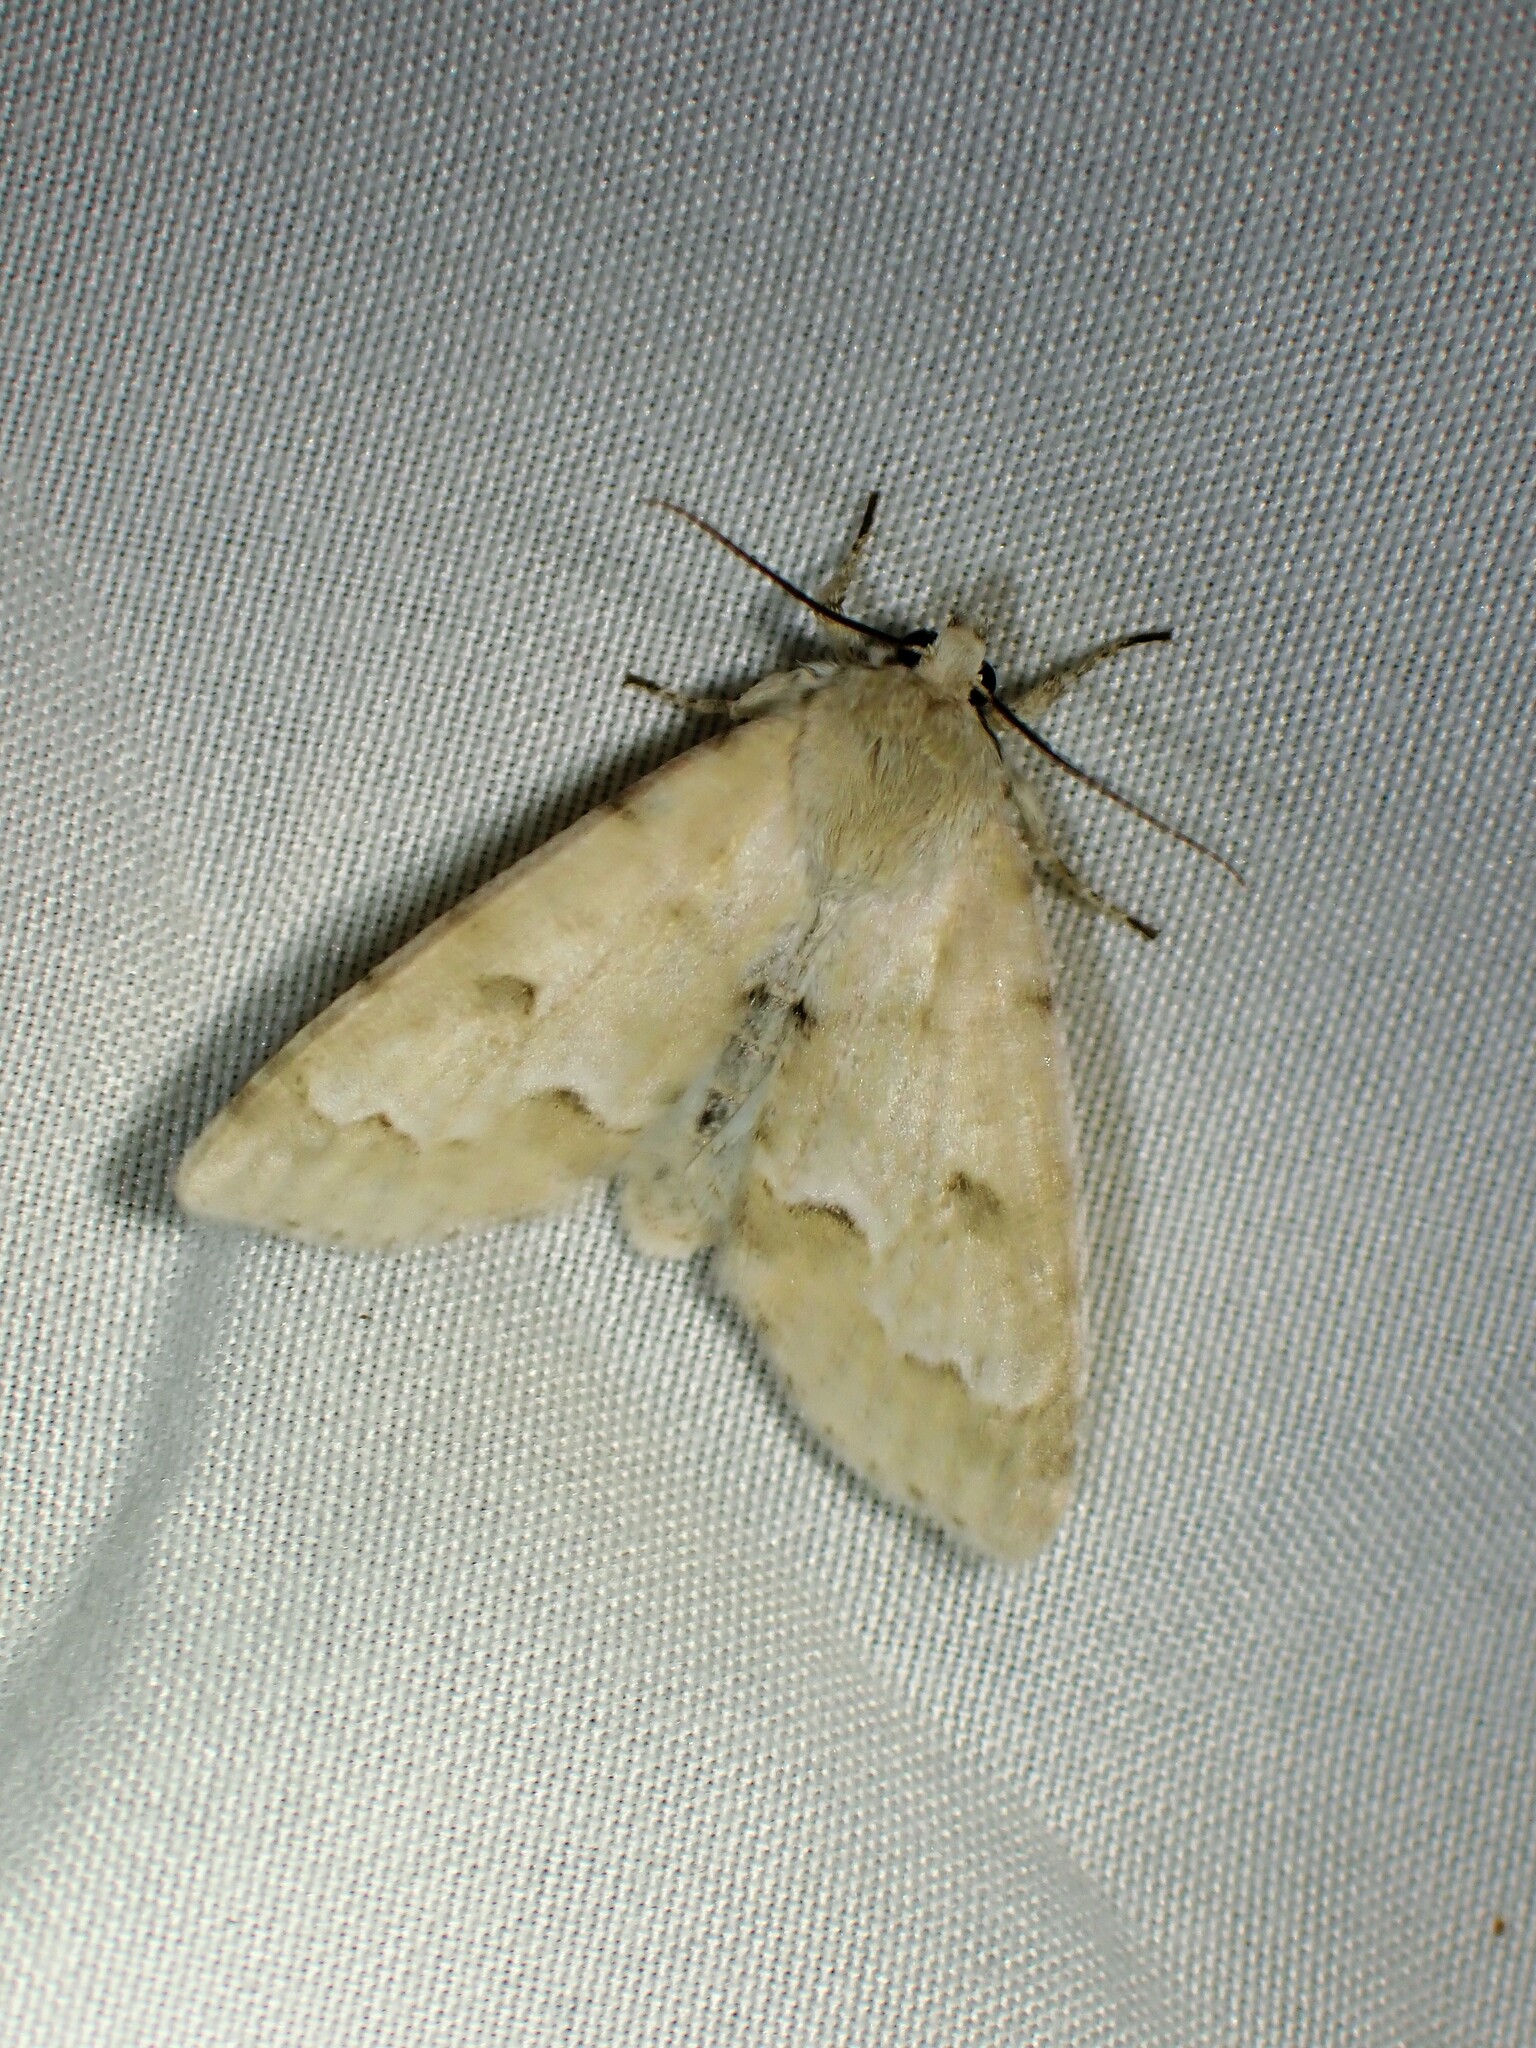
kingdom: Animalia
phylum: Arthropoda
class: Insecta
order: Lepidoptera
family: Noctuidae
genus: Acronicta
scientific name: Acronicta innotata
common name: Unmarked dagger
